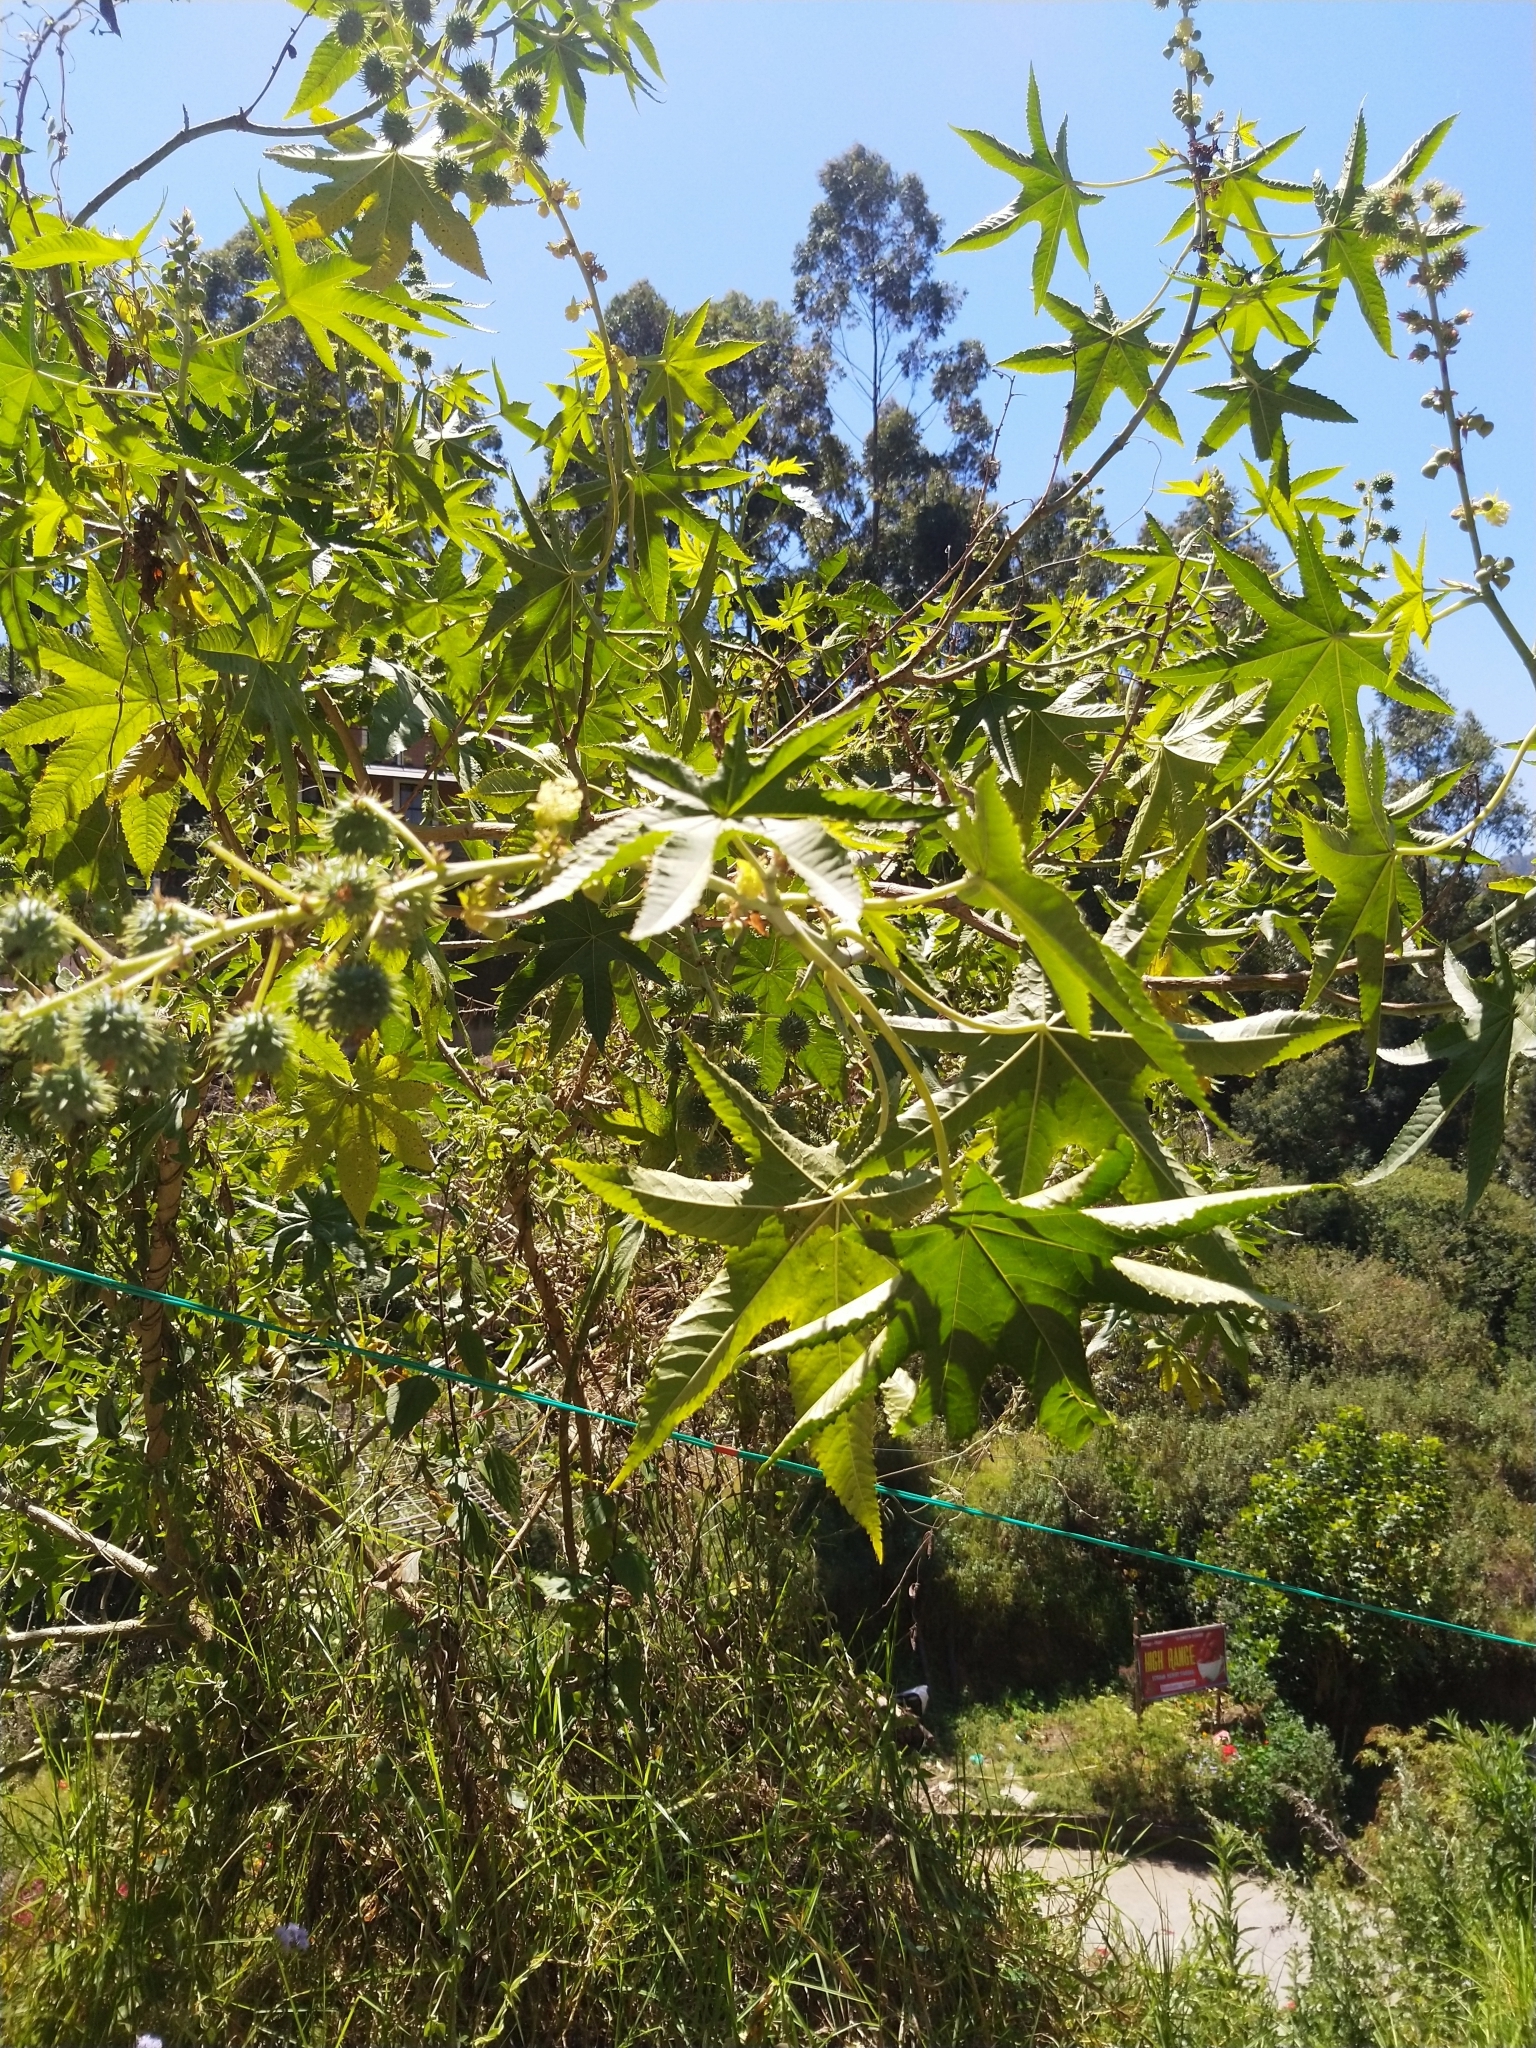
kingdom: Plantae
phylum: Tracheophyta
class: Magnoliopsida
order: Malpighiales
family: Euphorbiaceae
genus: Ricinus
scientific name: Ricinus communis
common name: Castor-oil-plant
